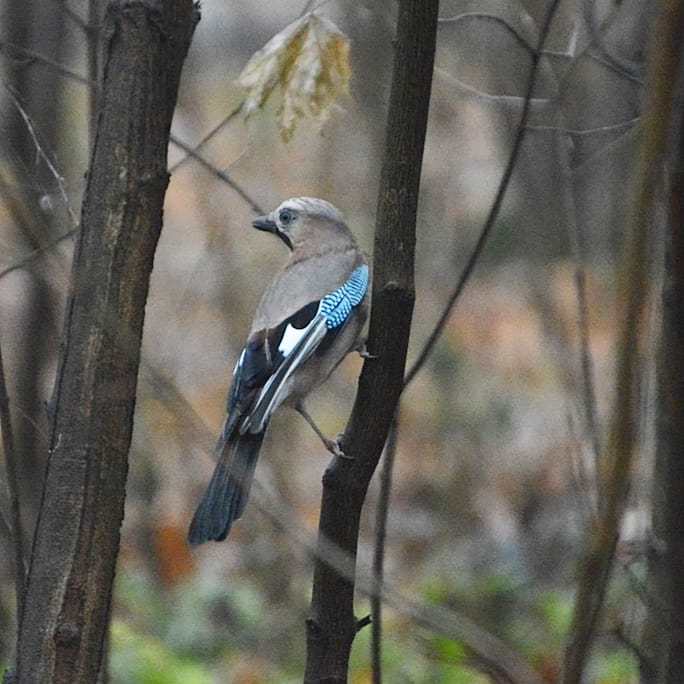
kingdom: Animalia
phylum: Chordata
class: Aves
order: Passeriformes
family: Corvidae
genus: Garrulus
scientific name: Garrulus glandarius
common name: Eurasian jay
